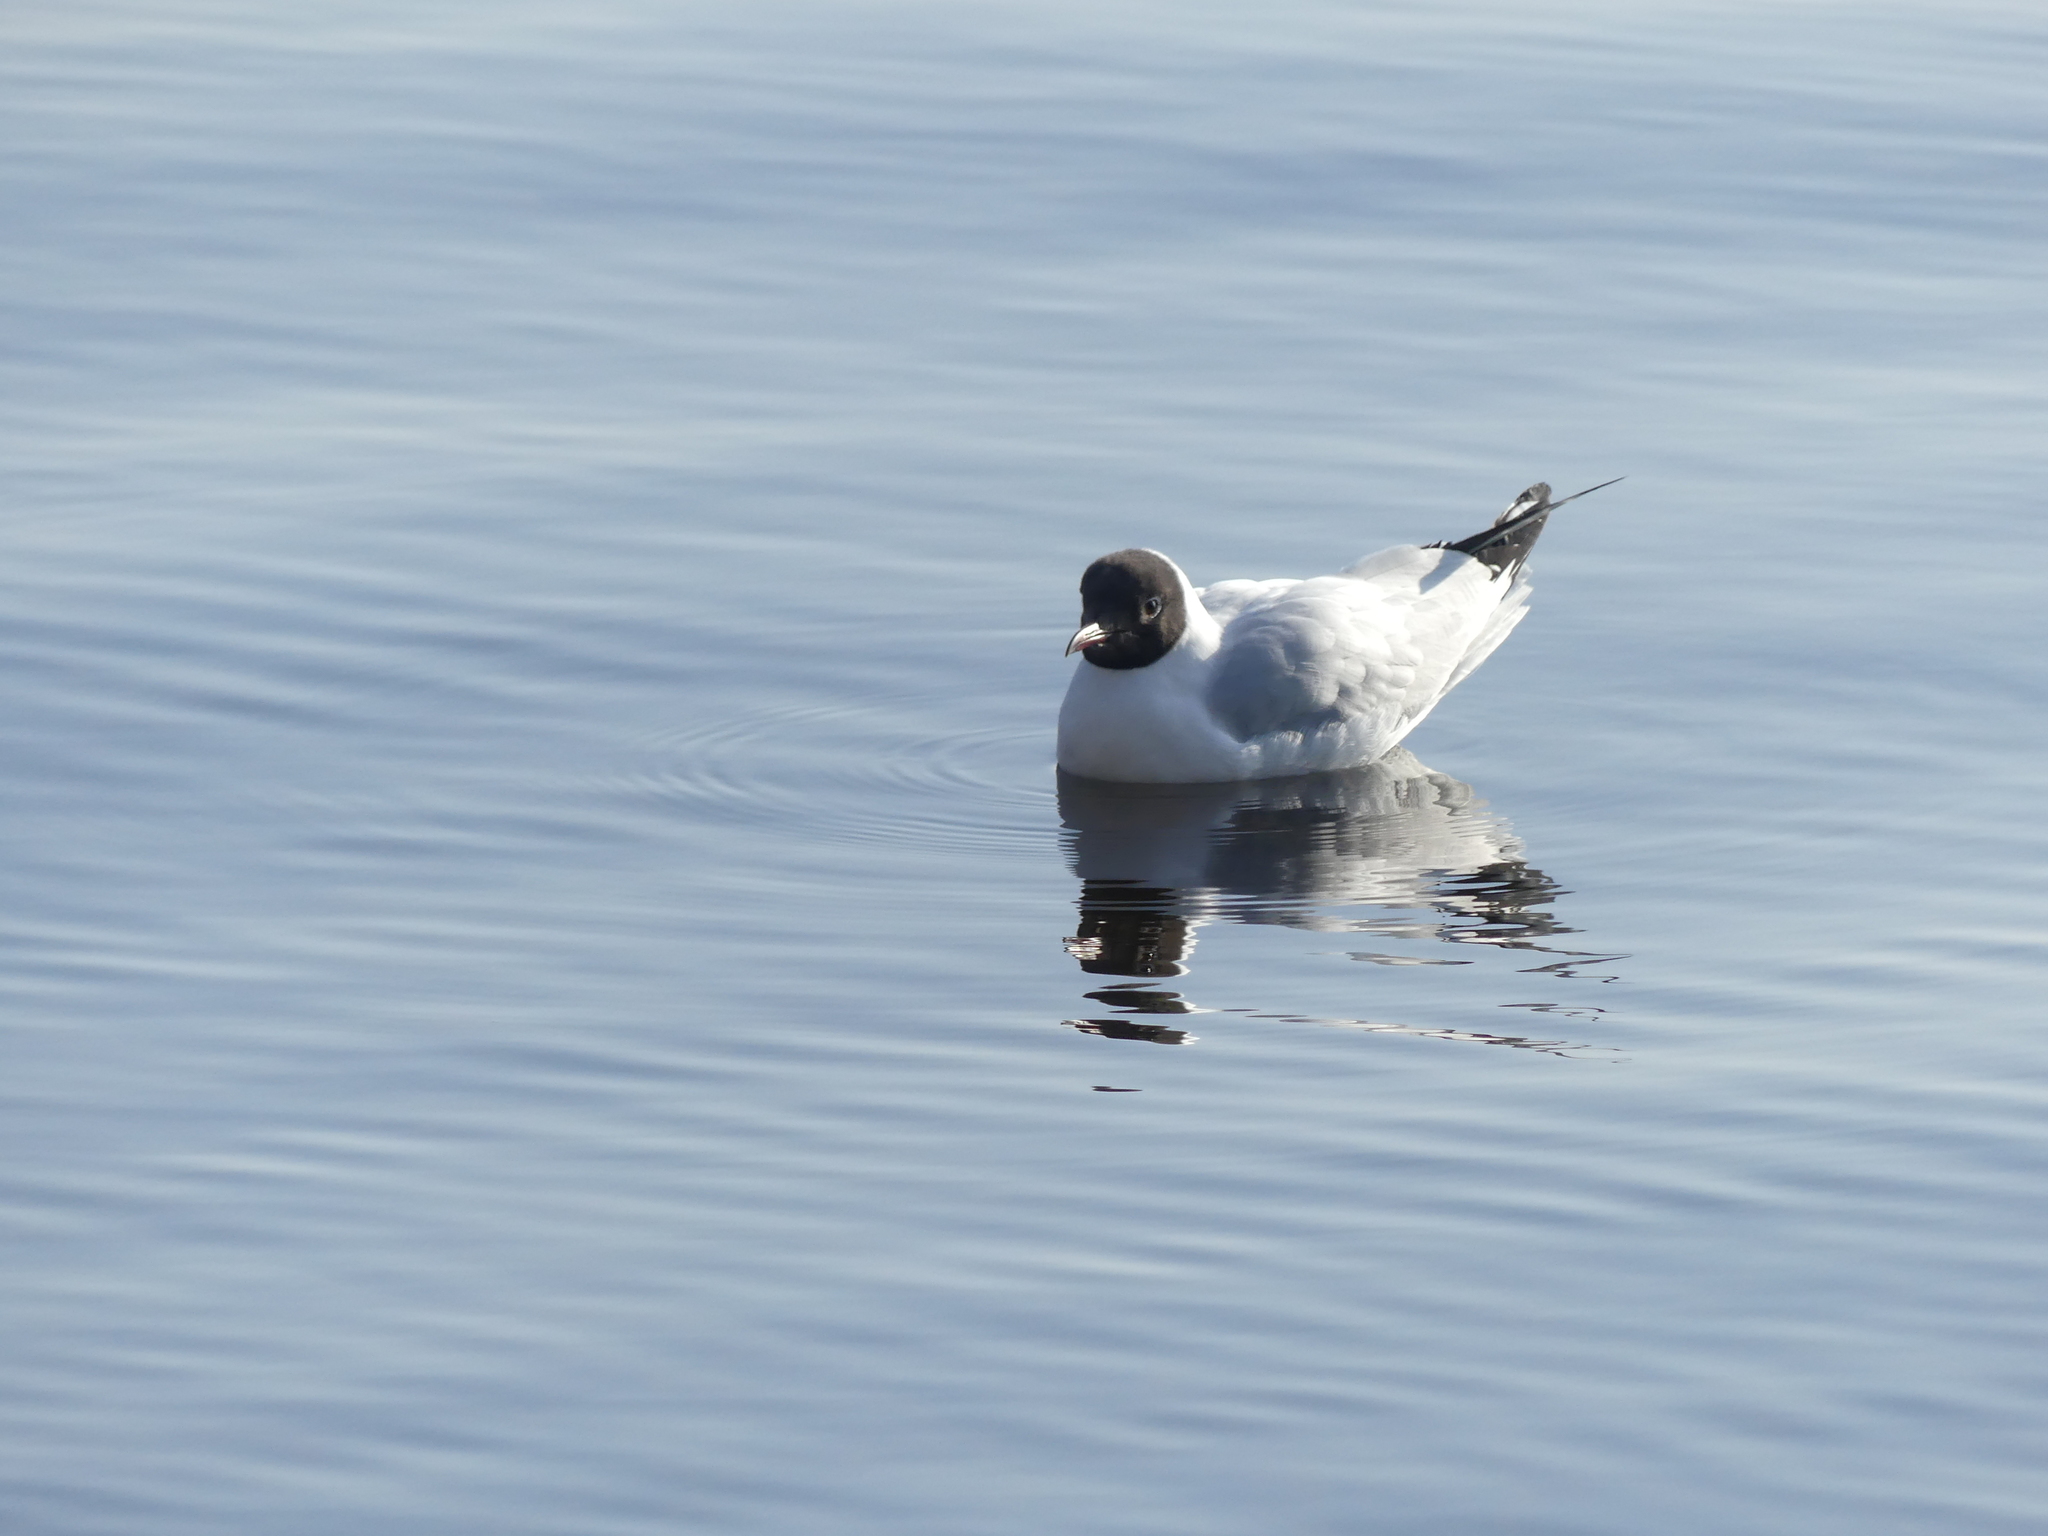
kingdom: Animalia
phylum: Chordata
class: Aves
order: Charadriiformes
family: Laridae
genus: Chroicocephalus
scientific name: Chroicocephalus ridibundus
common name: Black-headed gull
